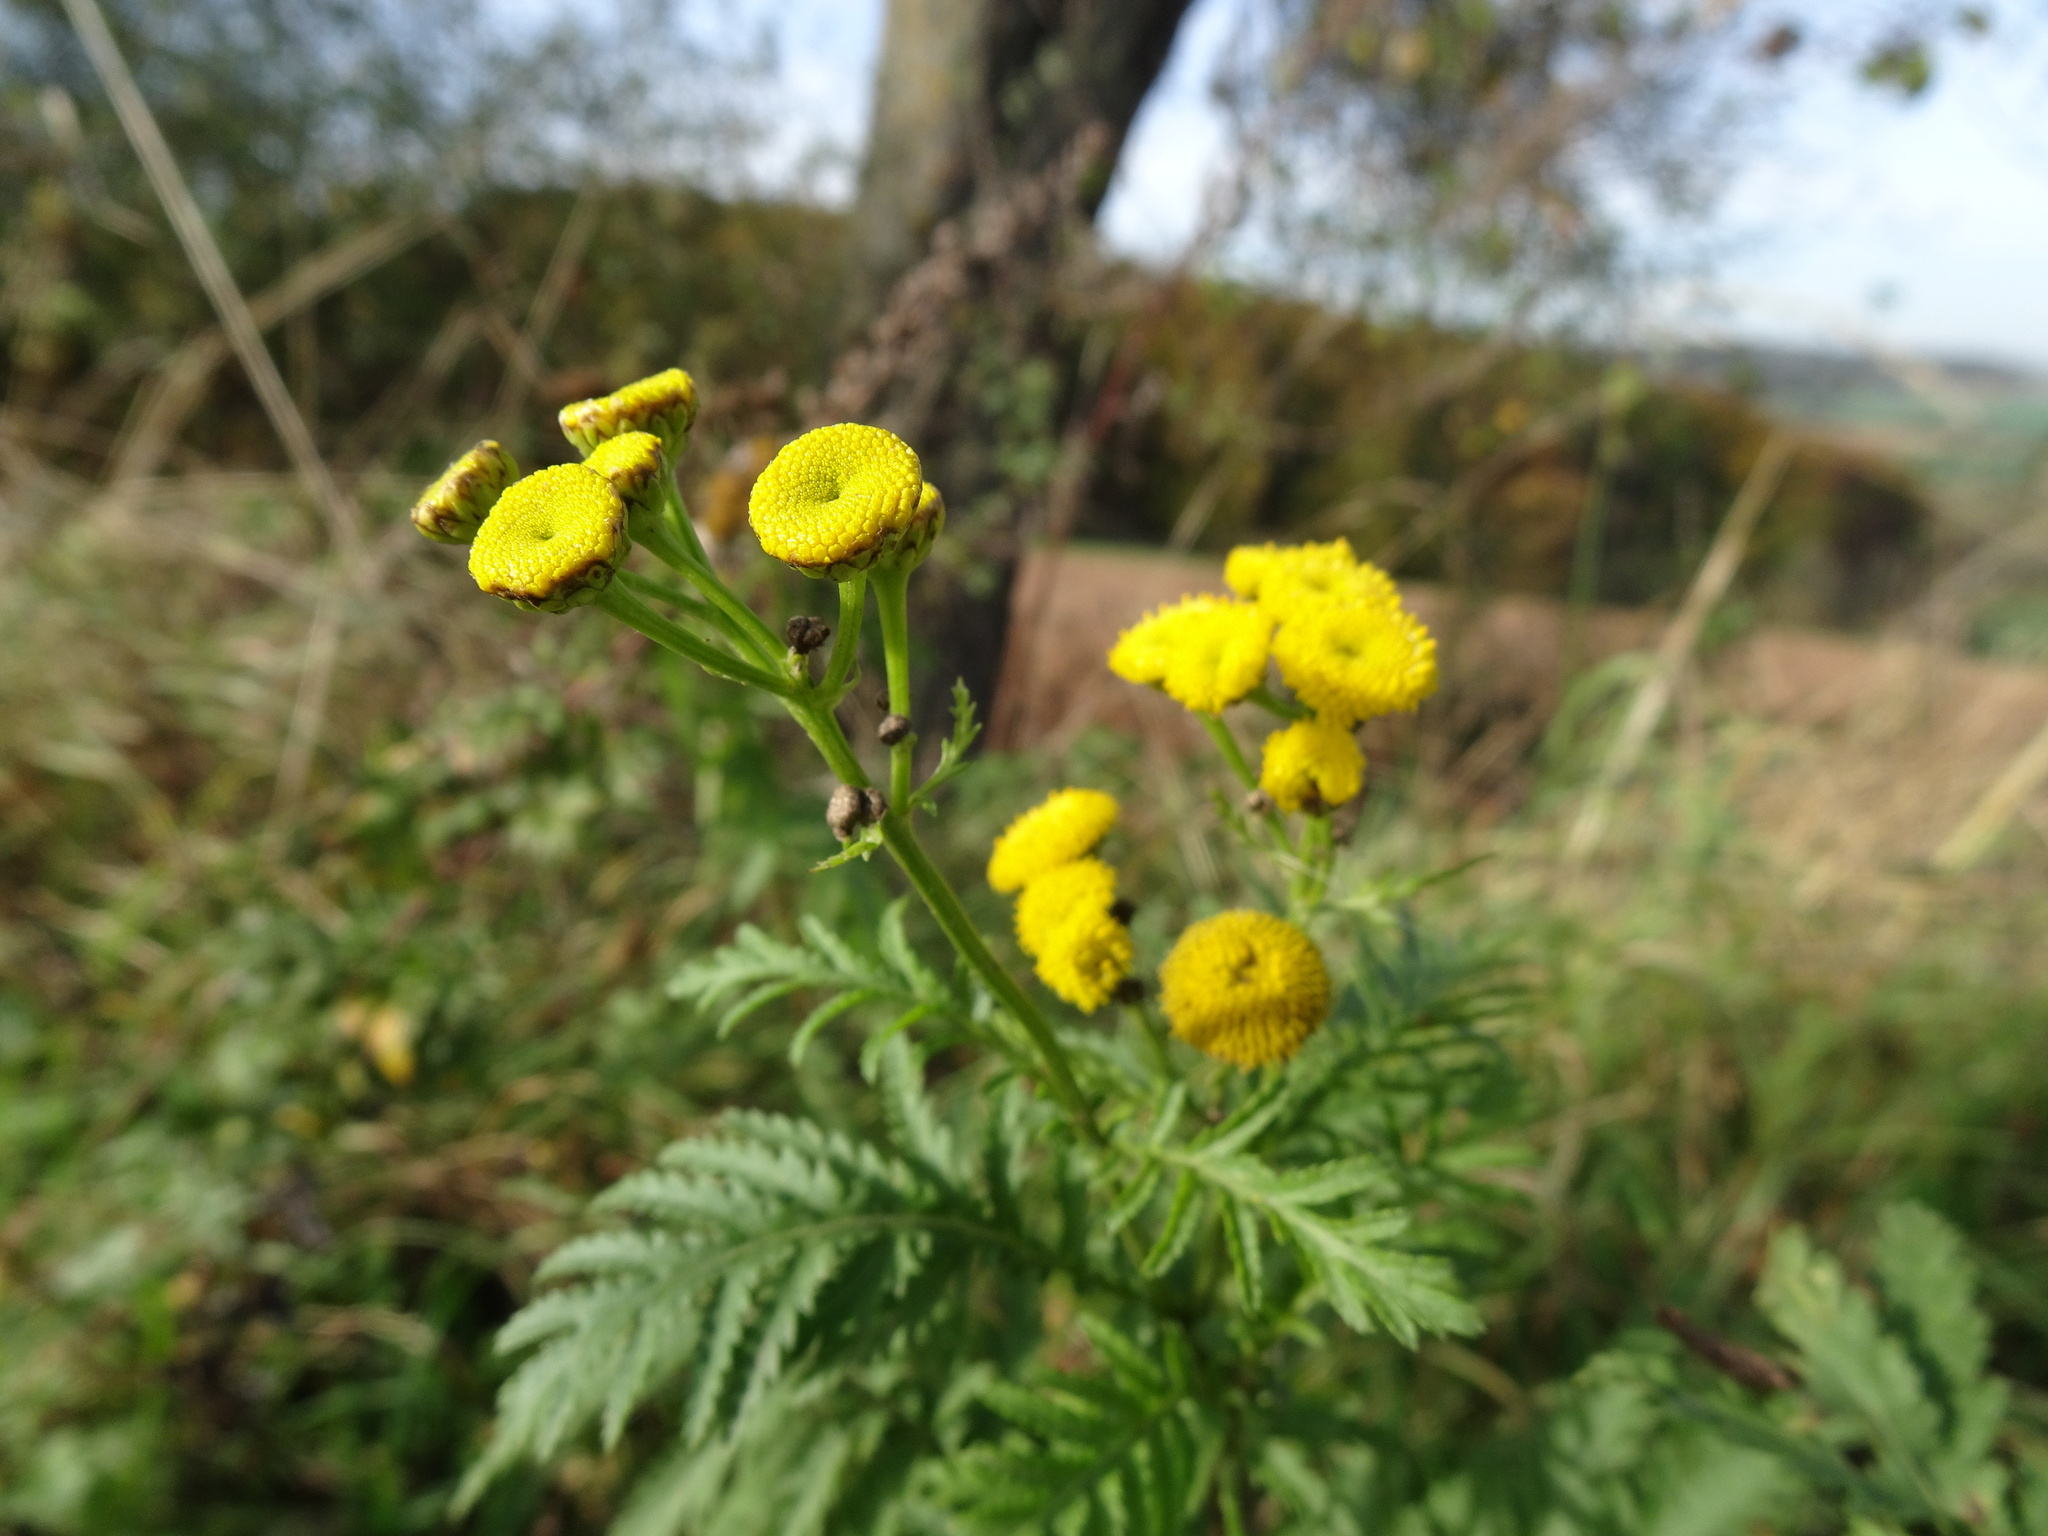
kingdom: Plantae
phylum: Tracheophyta
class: Magnoliopsida
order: Asterales
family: Asteraceae
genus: Tanacetum
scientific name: Tanacetum vulgare
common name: Common tansy
